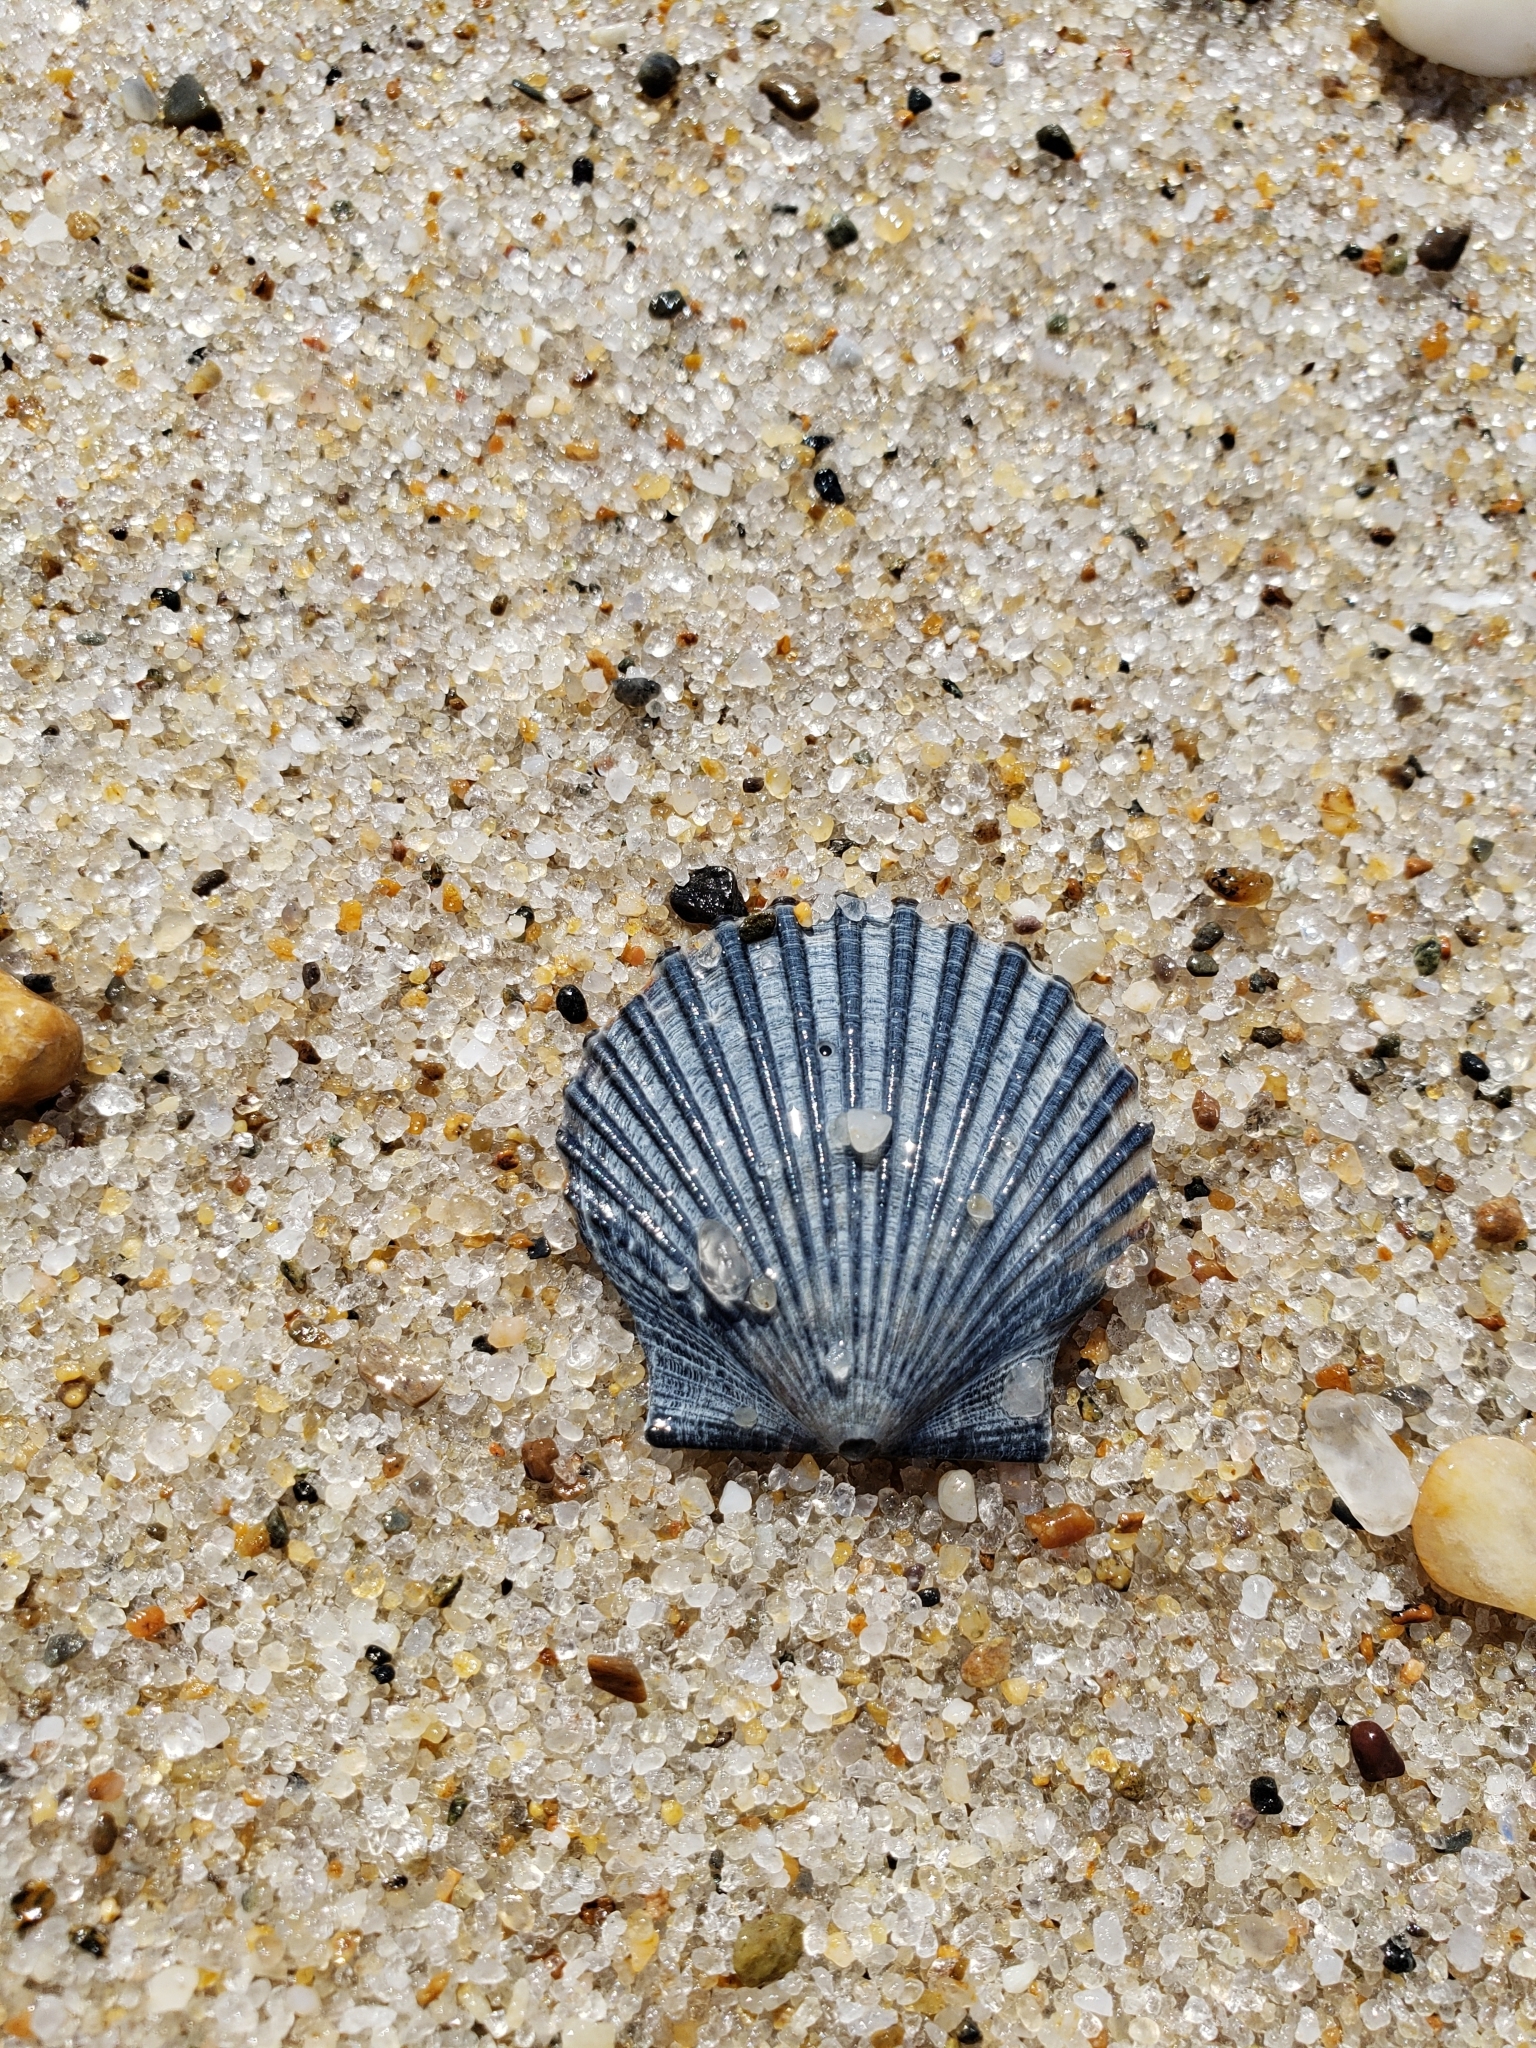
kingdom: Animalia
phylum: Mollusca
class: Bivalvia
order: Pectinida
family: Pectinidae
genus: Argopecten
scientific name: Argopecten irradians
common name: Atlantic bay scallop
